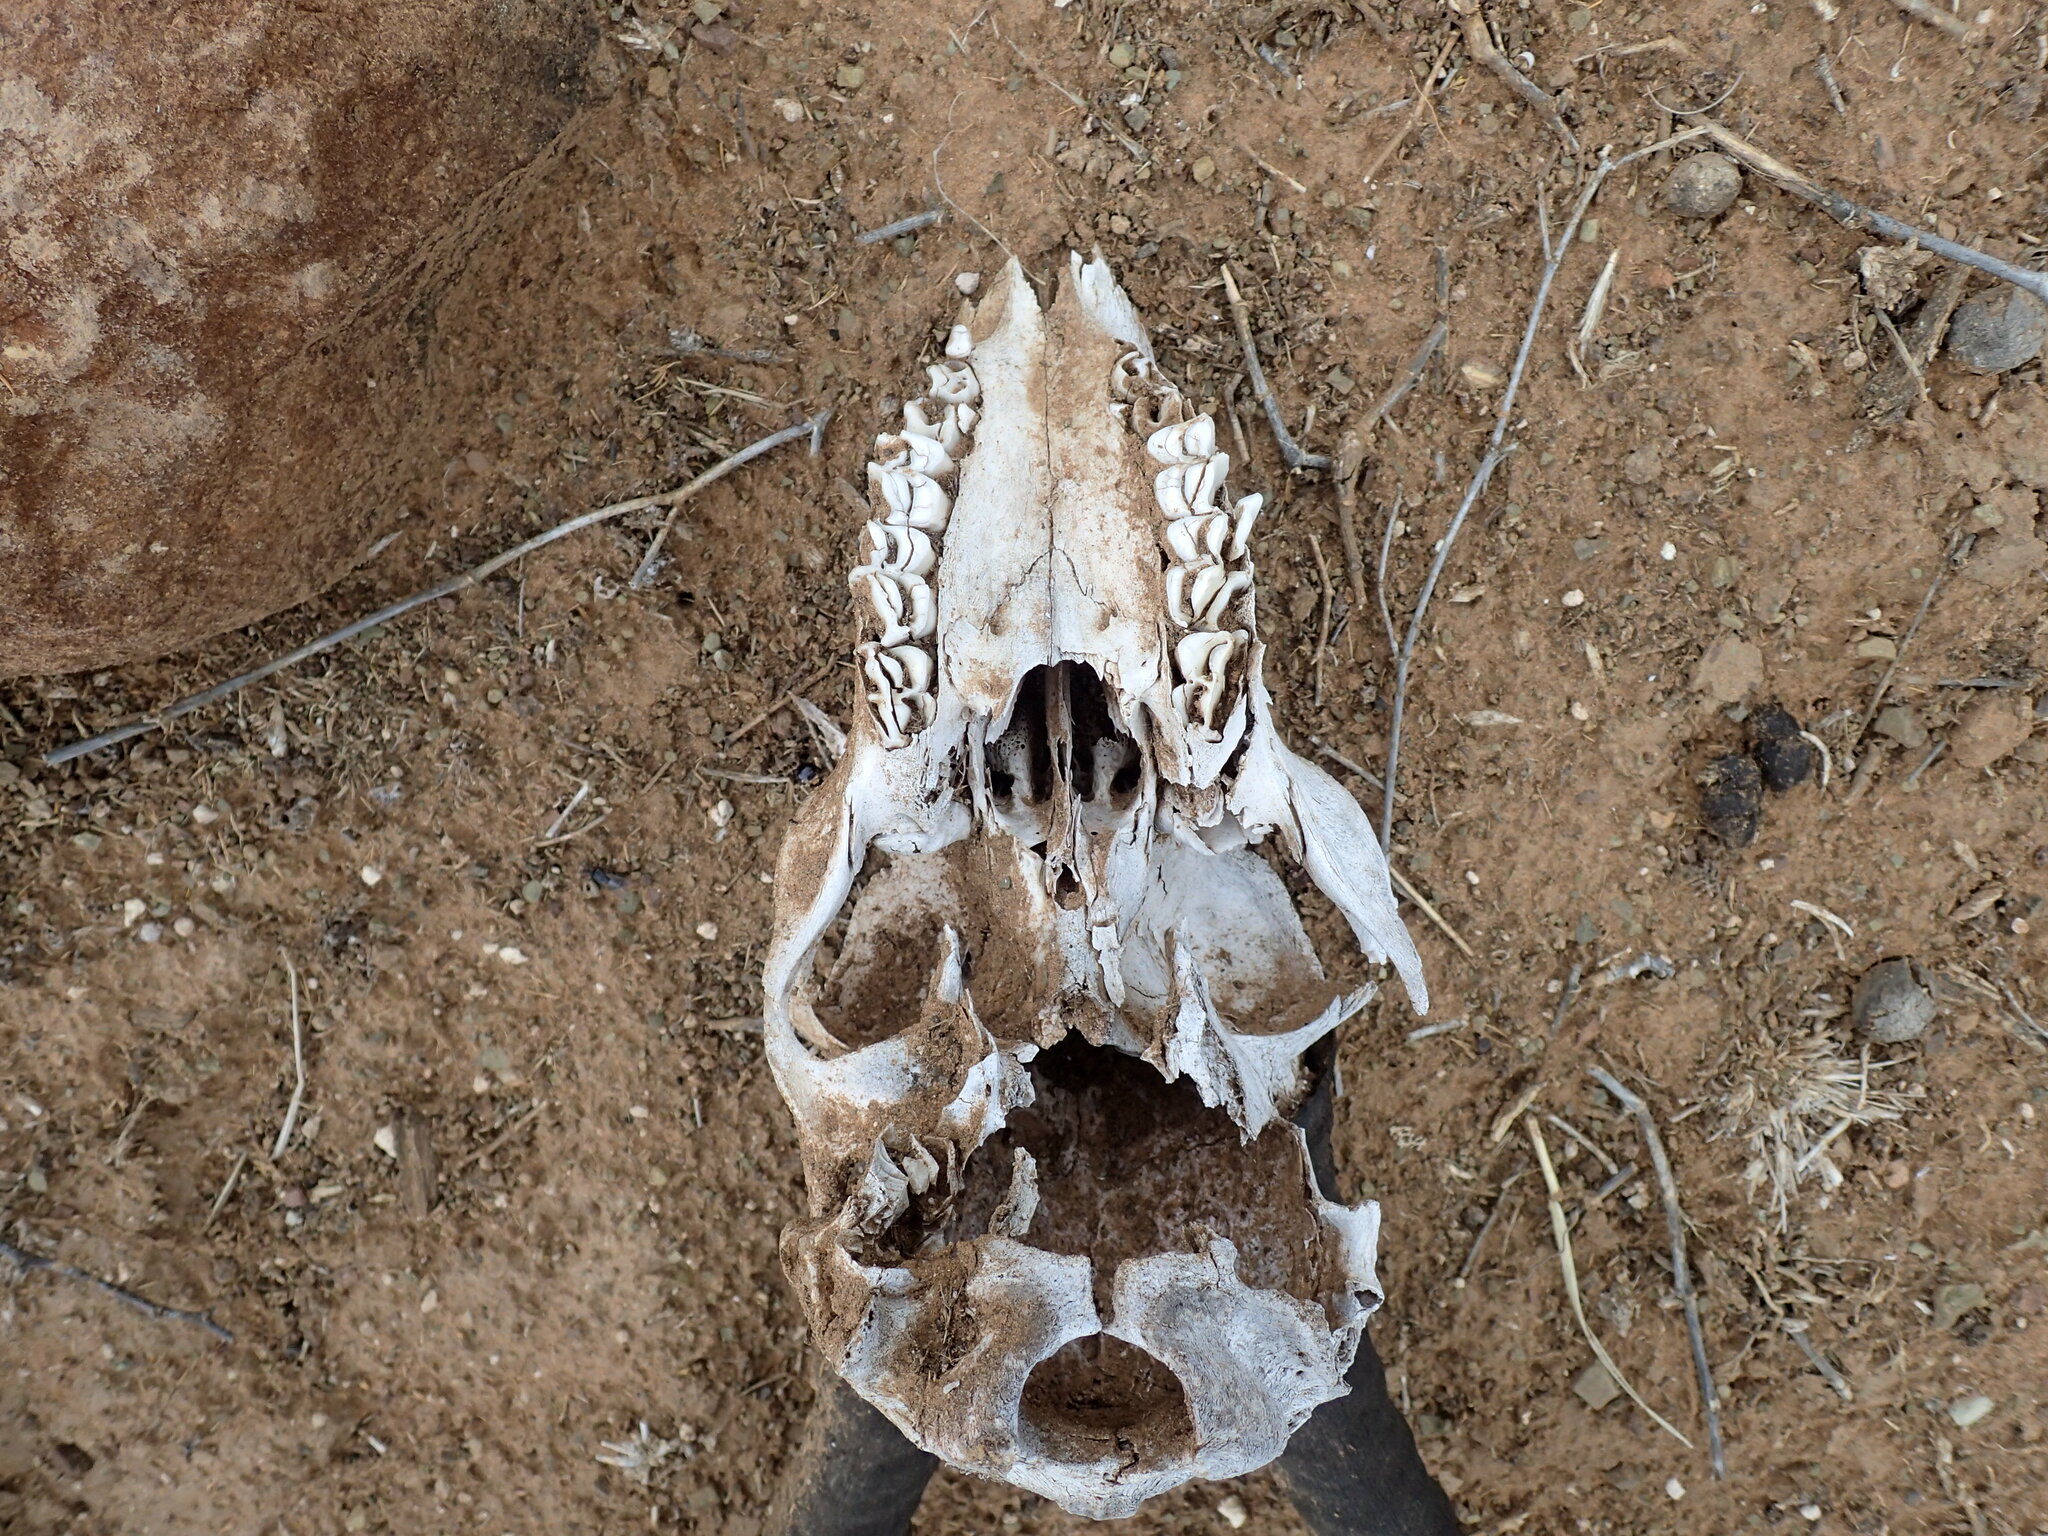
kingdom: Animalia
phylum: Chordata
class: Mammalia
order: Artiodactyla
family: Bovidae
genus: Antidorcas
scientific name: Antidorcas marsupialis
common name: Springbok
